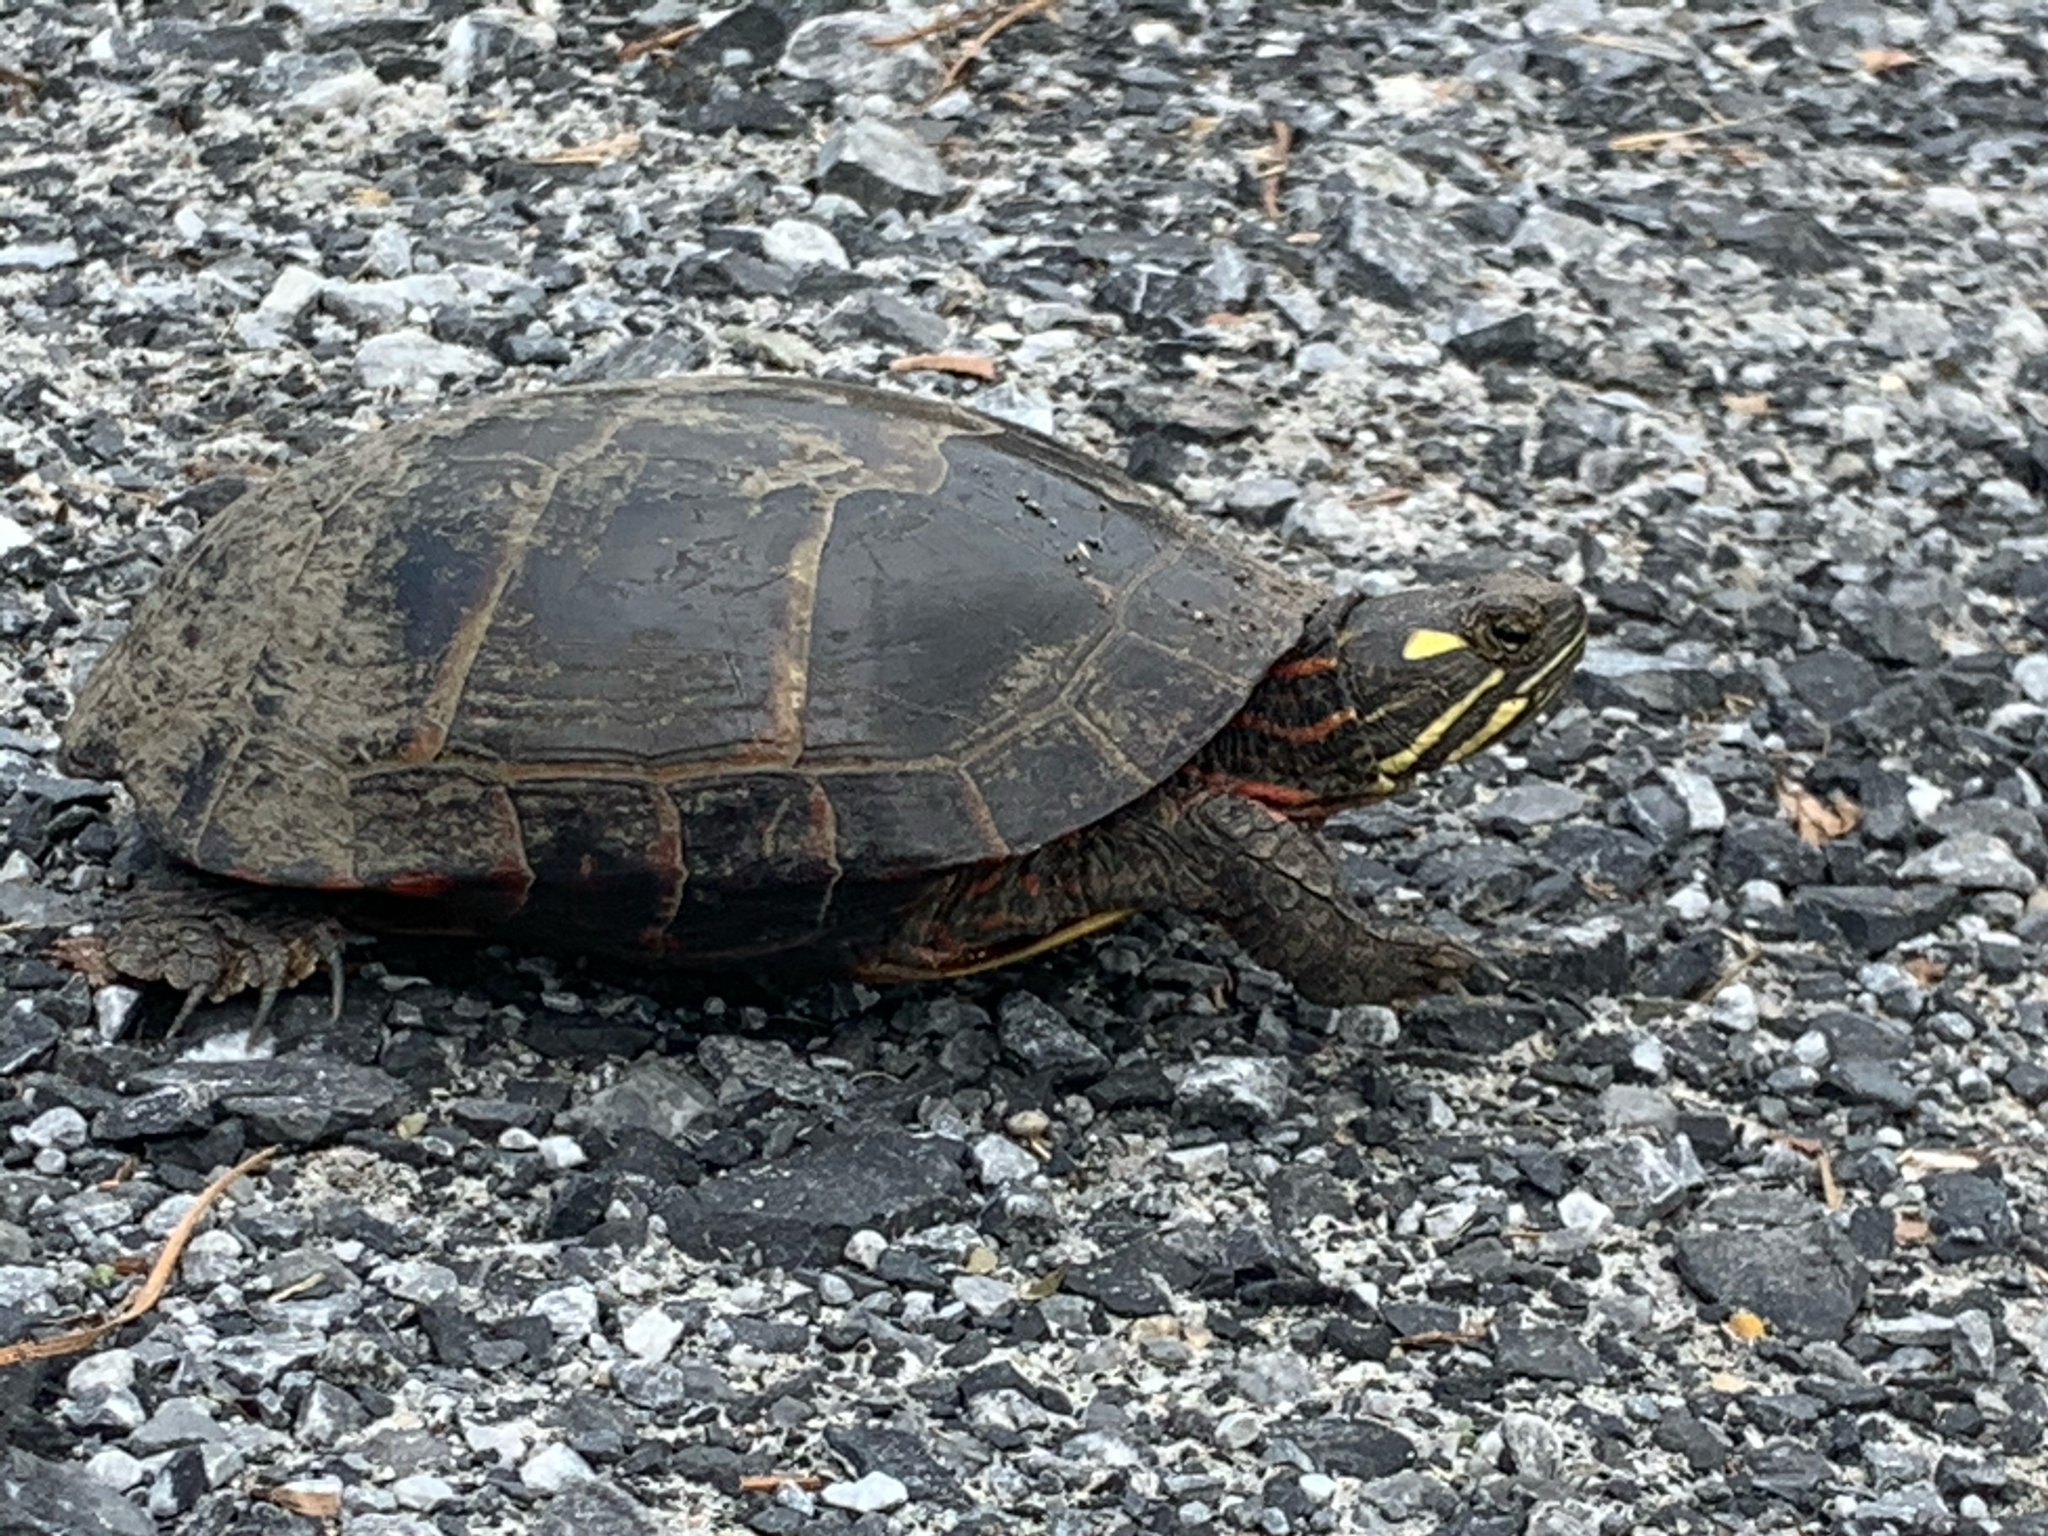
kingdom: Animalia
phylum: Chordata
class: Testudines
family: Emydidae
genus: Chrysemys
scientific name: Chrysemys picta
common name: Painted turtle
